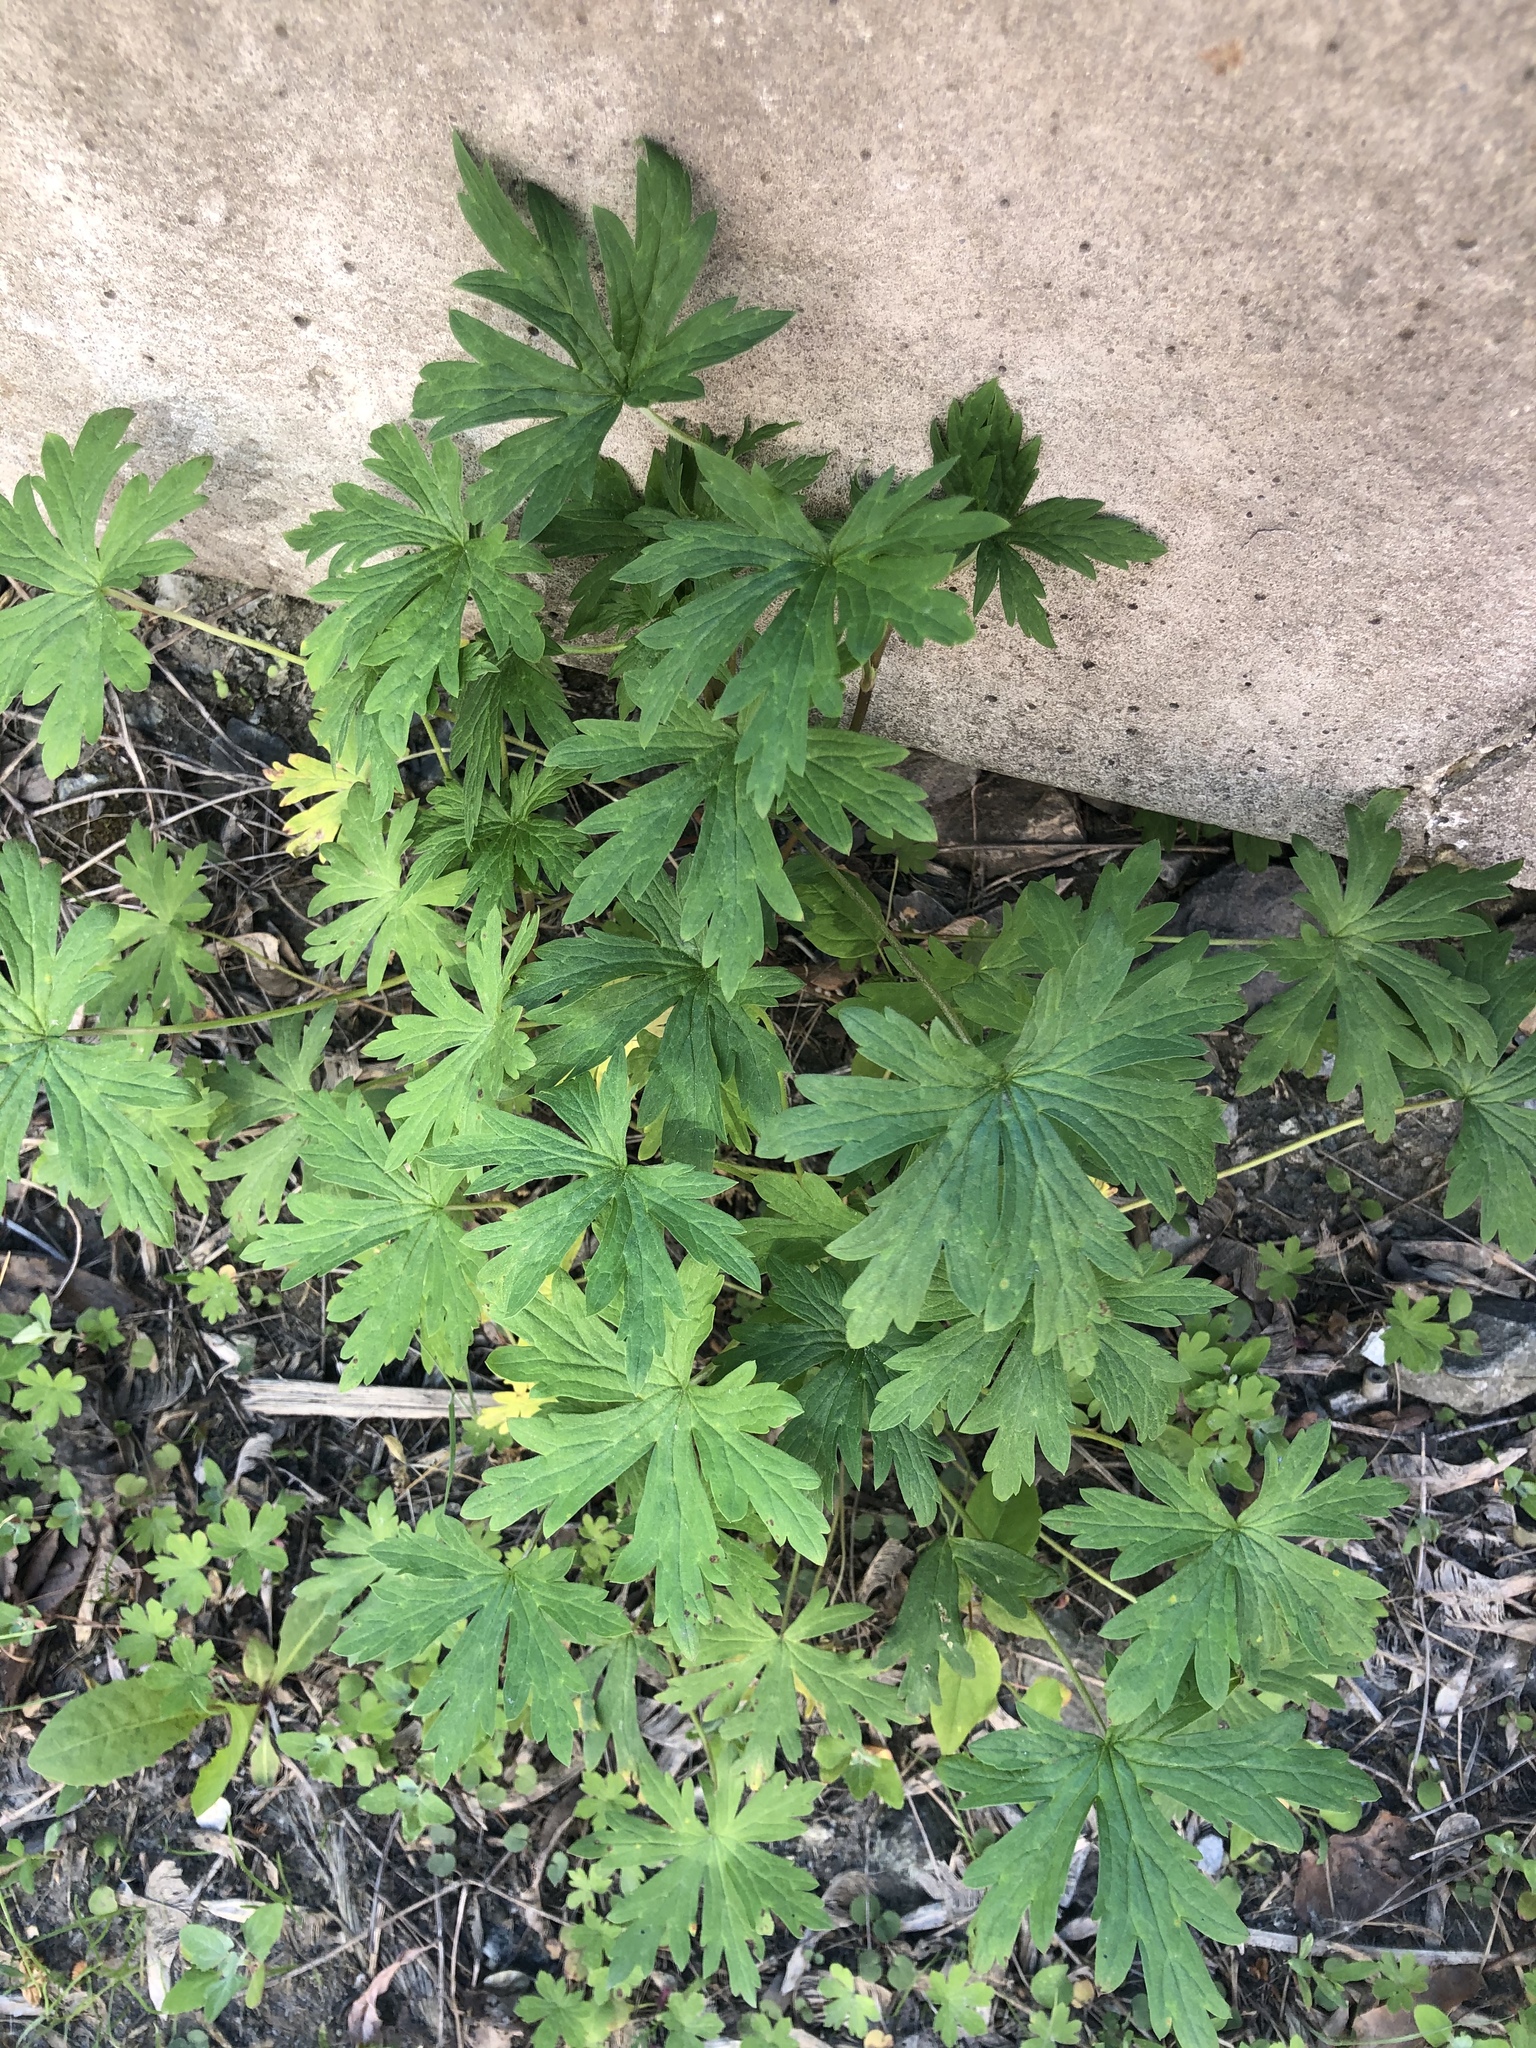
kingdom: Plantae
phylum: Tracheophyta
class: Magnoliopsida
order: Geraniales
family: Geraniaceae
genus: Geranium
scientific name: Geranium sibiricum
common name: Siberian crane's-bill
